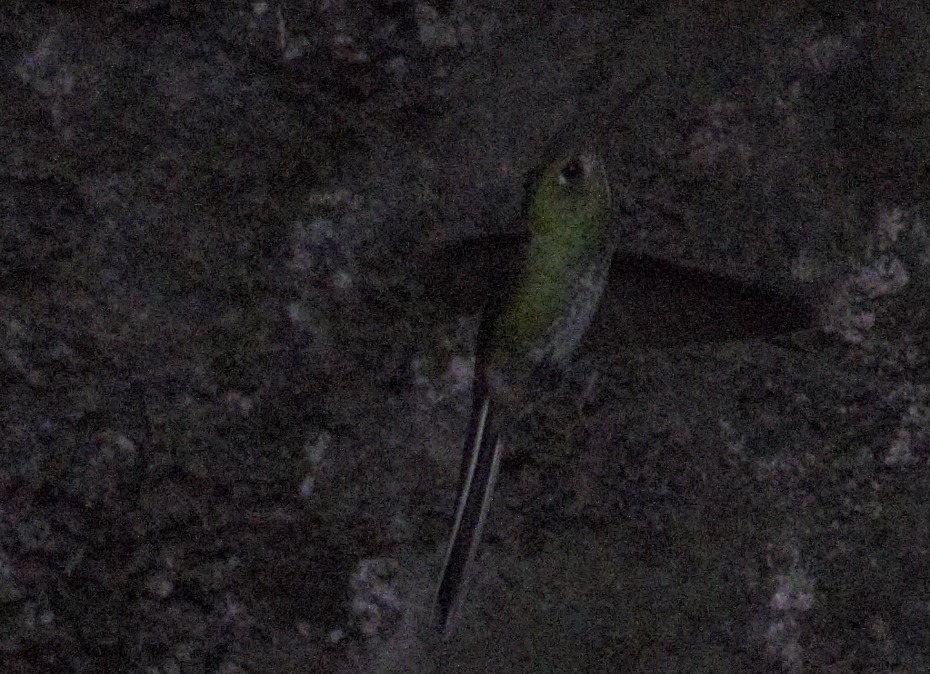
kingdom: Animalia
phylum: Chordata
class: Aves
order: Apodiformes
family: Trochilidae
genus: Sappho
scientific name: Sappho sparganurus
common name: Red-tailed comet
